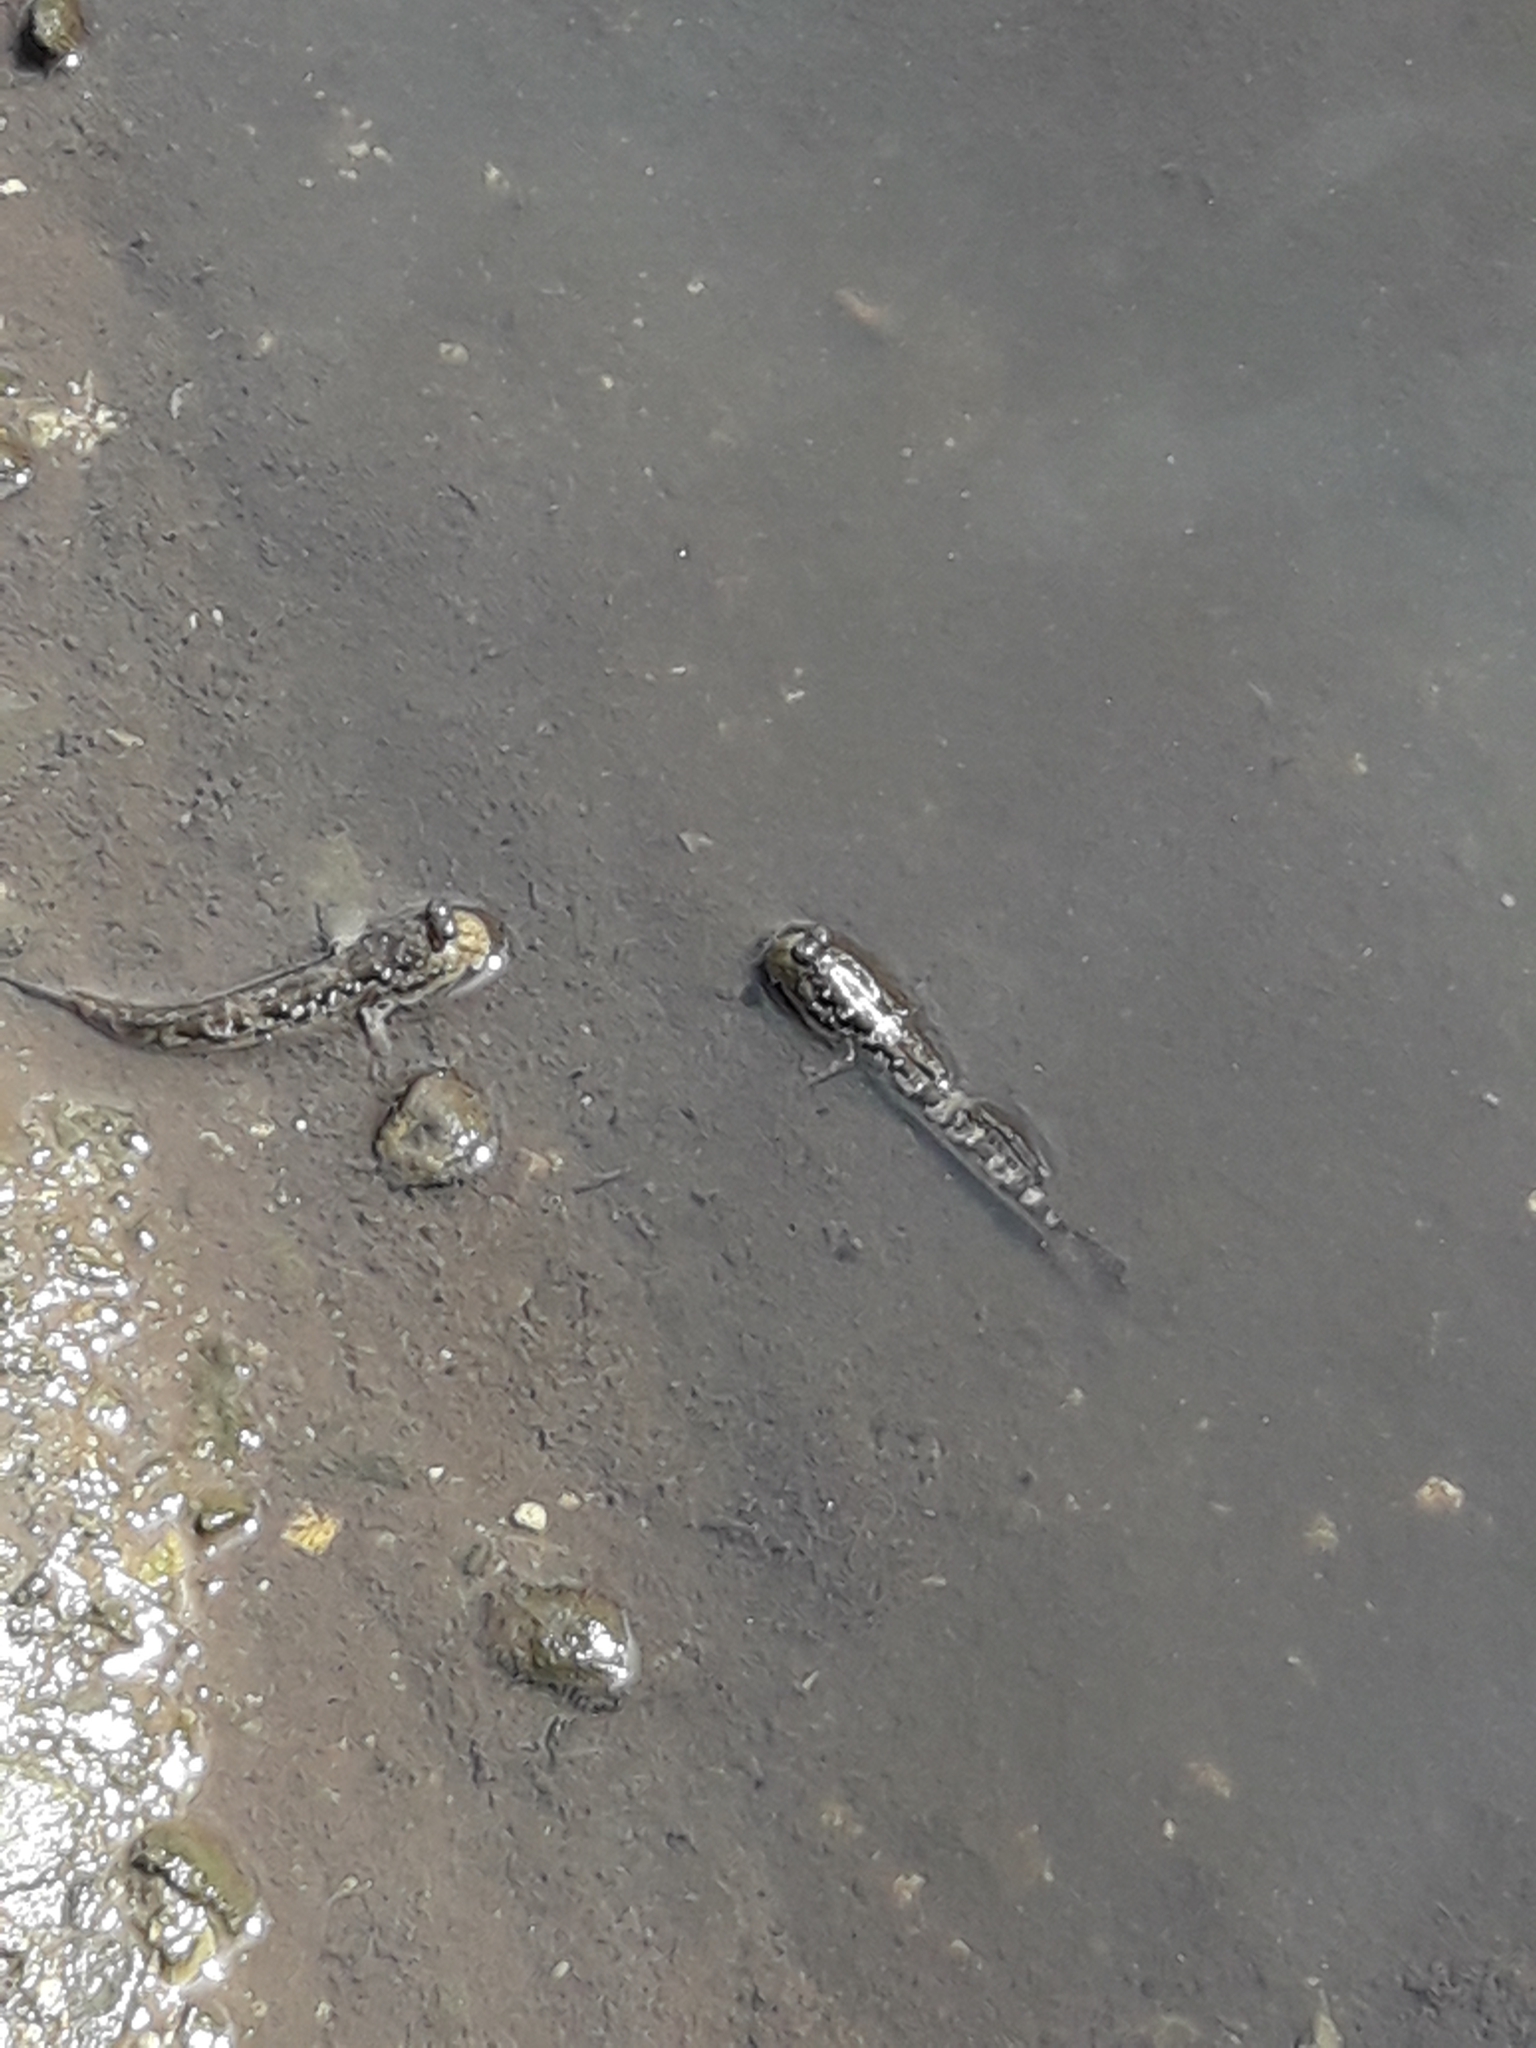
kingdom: Animalia
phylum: Chordata
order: Perciformes
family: Gobiidae
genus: Periophthalmus
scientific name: Periophthalmus argentilineatus
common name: Barred mudskipper
